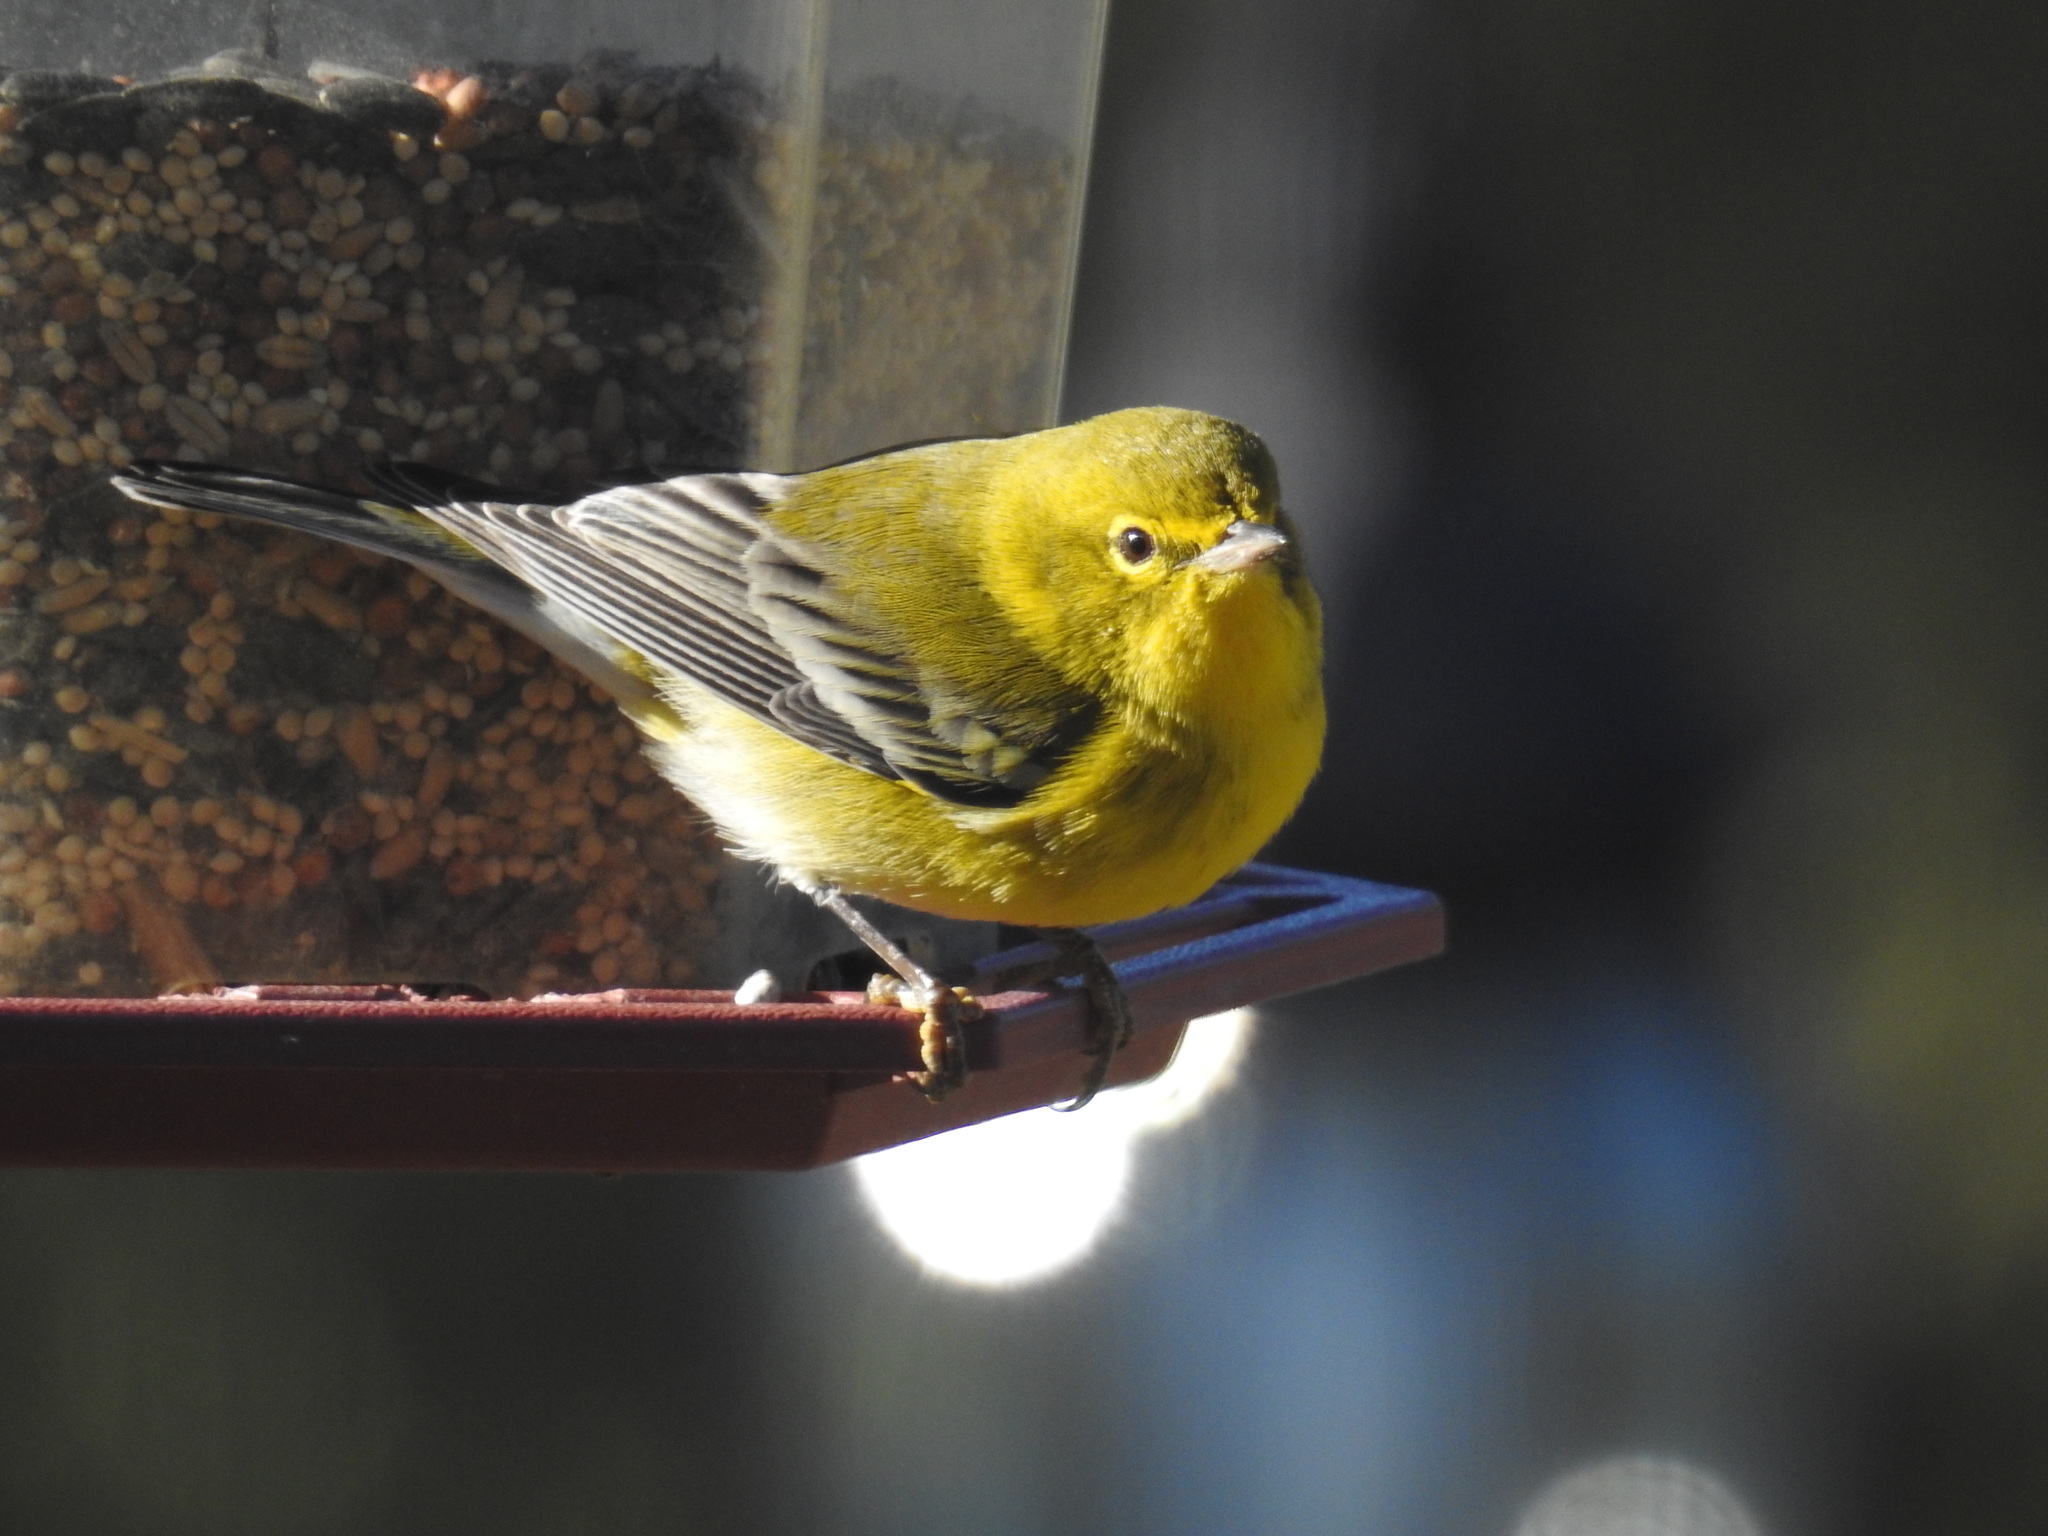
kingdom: Animalia
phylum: Chordata
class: Aves
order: Passeriformes
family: Parulidae
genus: Setophaga
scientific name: Setophaga pinus
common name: Pine warbler
